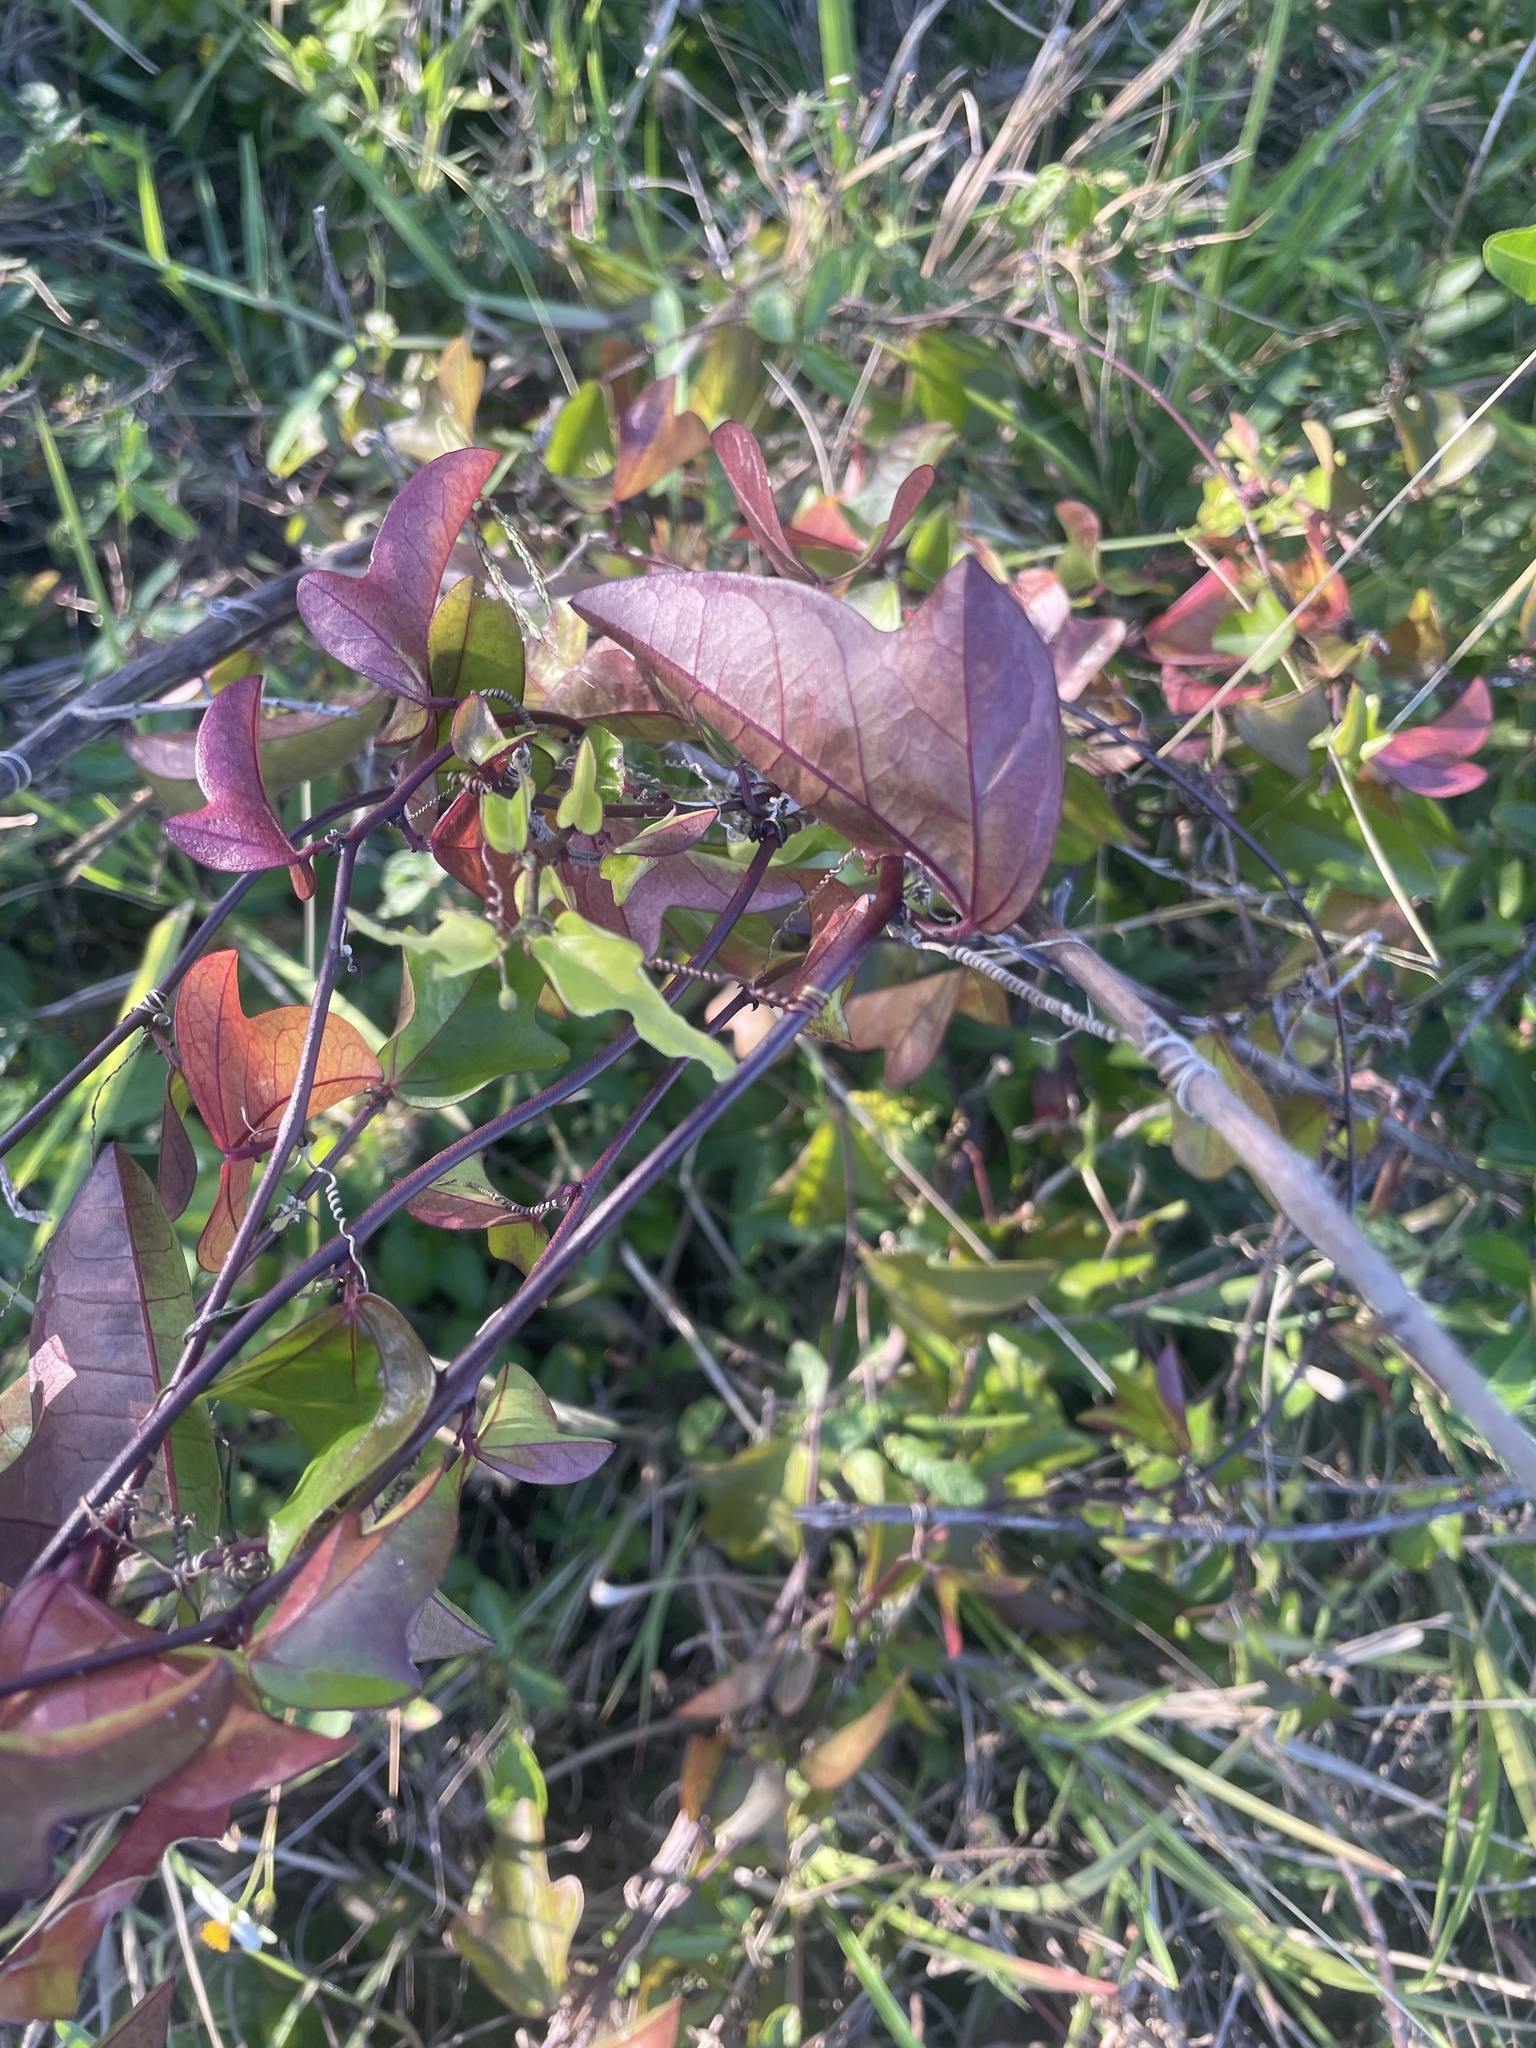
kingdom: Plantae
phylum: Tracheophyta
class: Magnoliopsida
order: Malpighiales
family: Passifloraceae
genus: Passiflora
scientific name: Passiflora pallida
